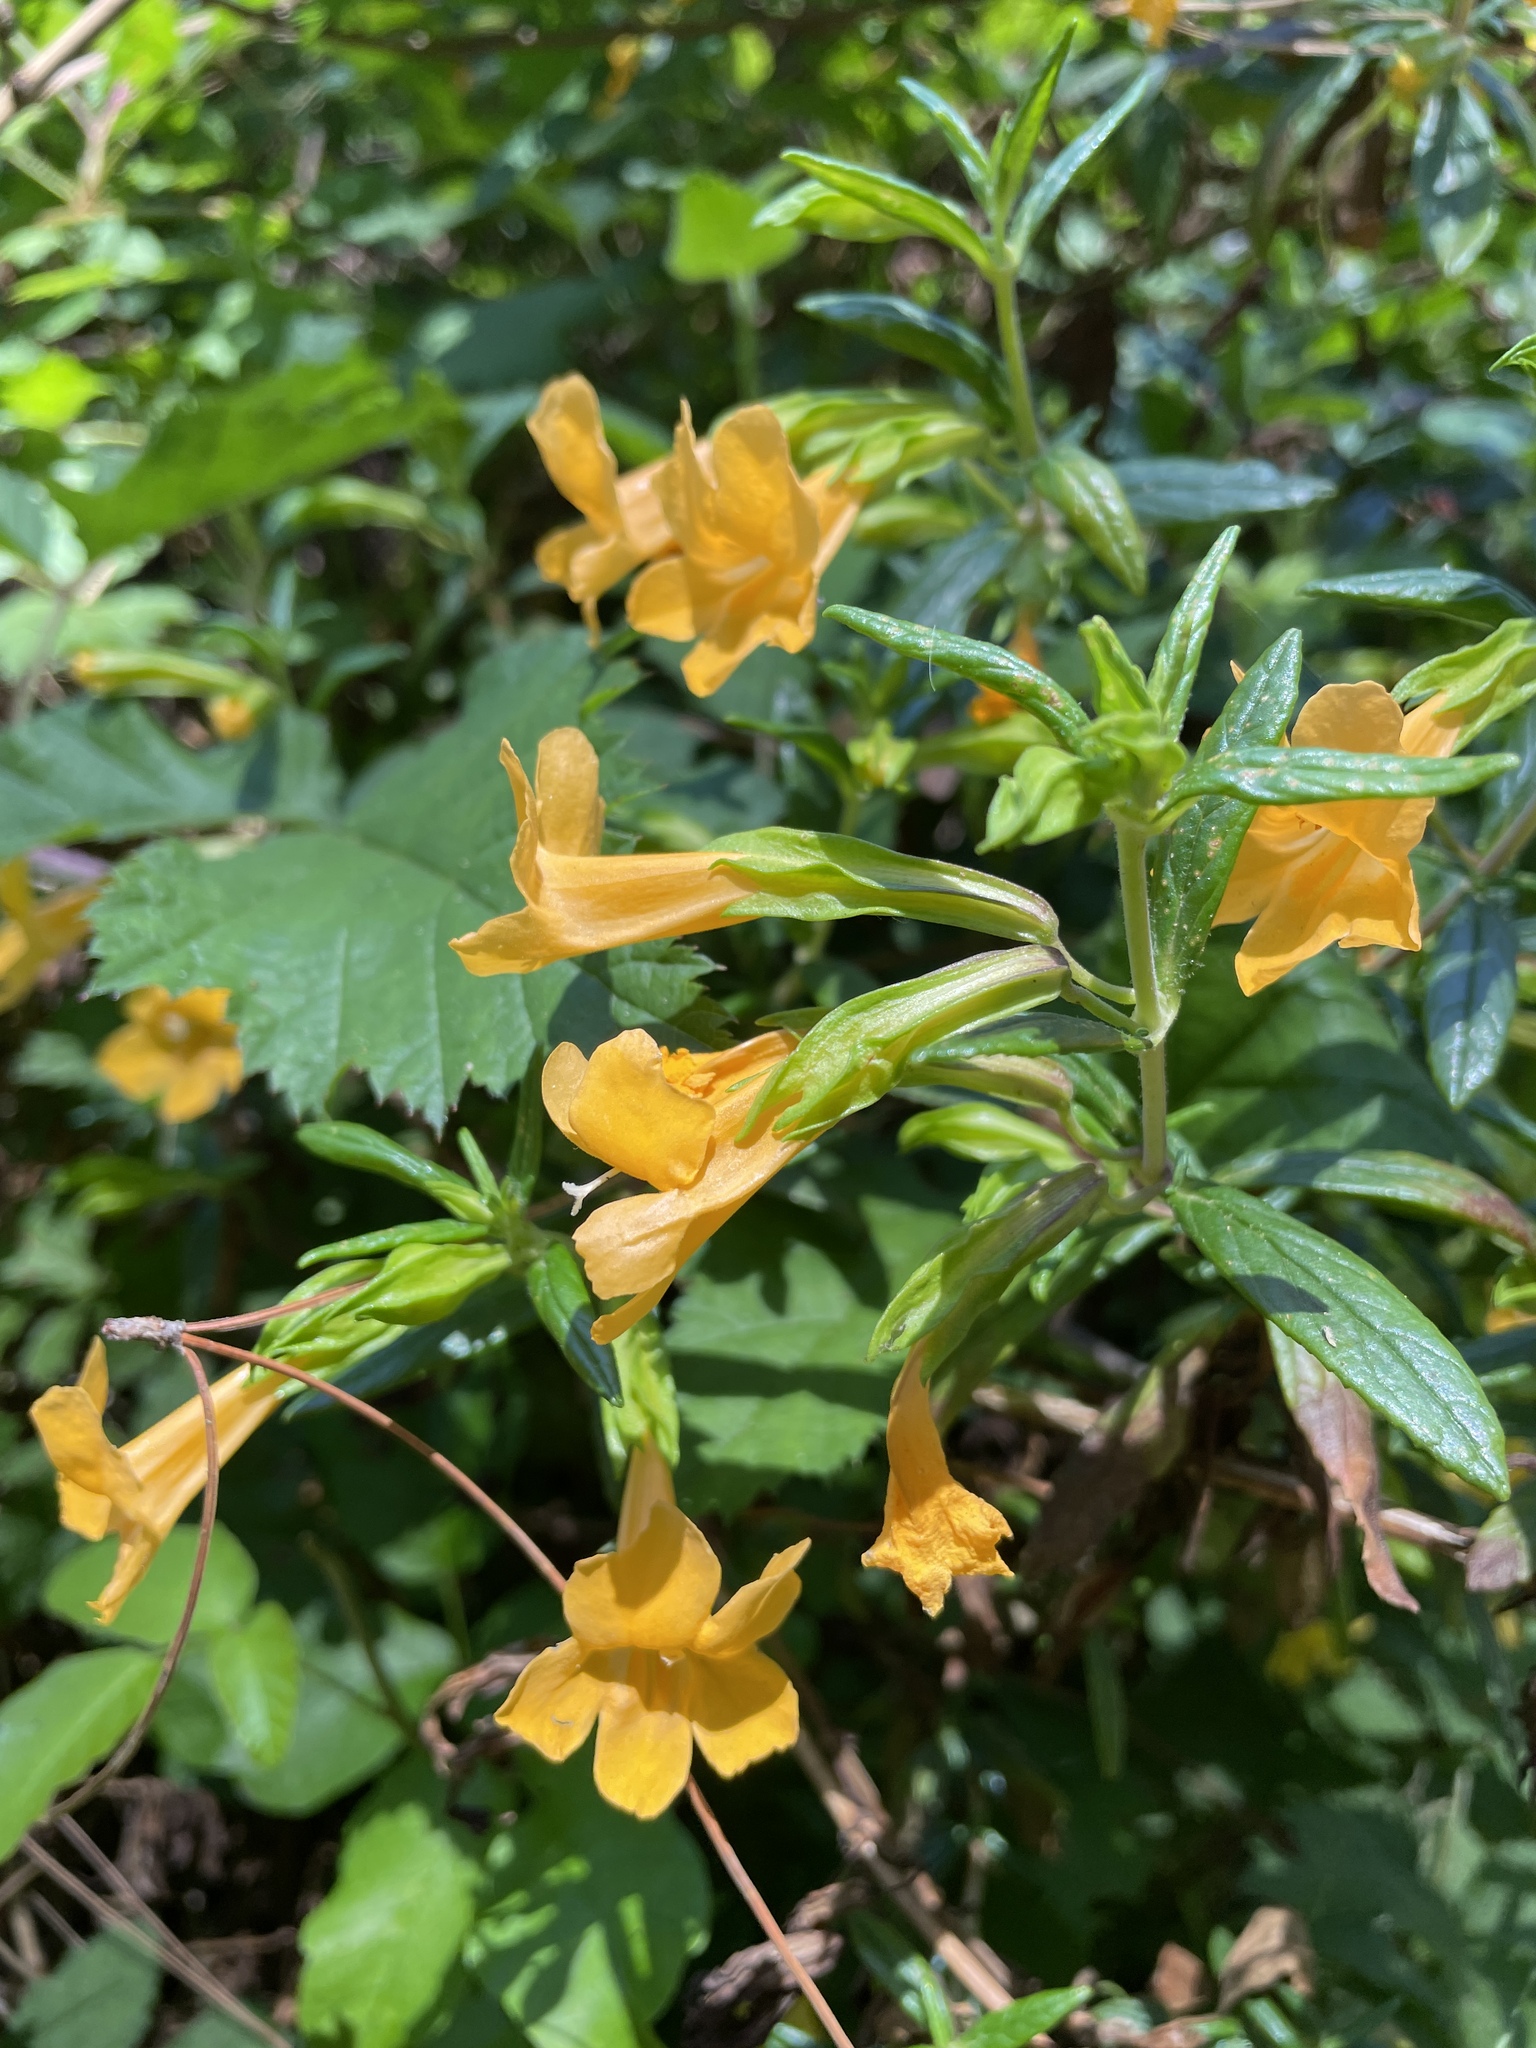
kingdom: Plantae
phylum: Tracheophyta
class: Magnoliopsida
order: Lamiales
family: Phrymaceae
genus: Diplacus
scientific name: Diplacus aurantiacus
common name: Bush monkey-flower
